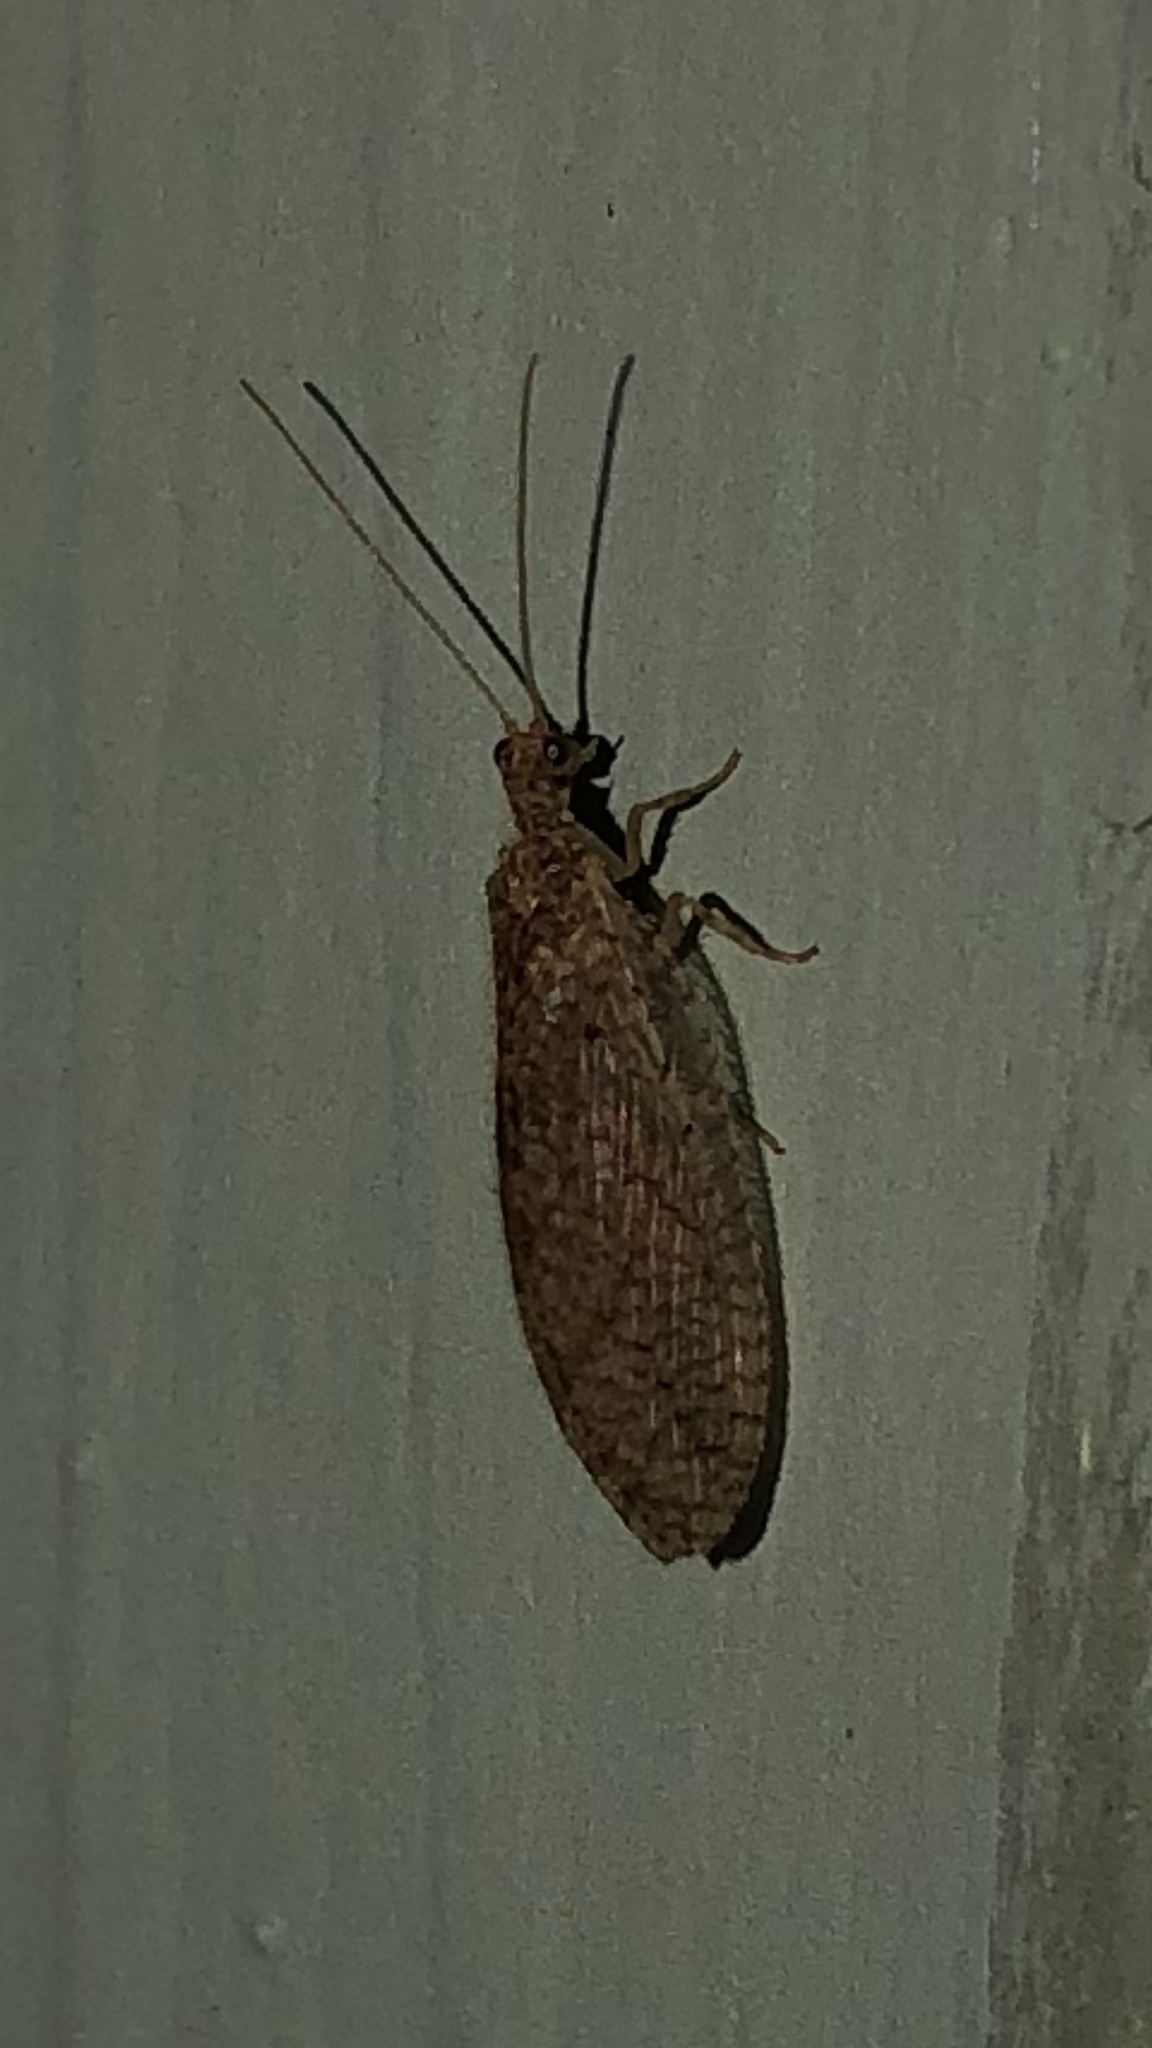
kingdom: Animalia
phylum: Arthropoda
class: Insecta
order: Neuroptera
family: Hemerobiidae
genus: Micromus
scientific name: Micromus posticus
